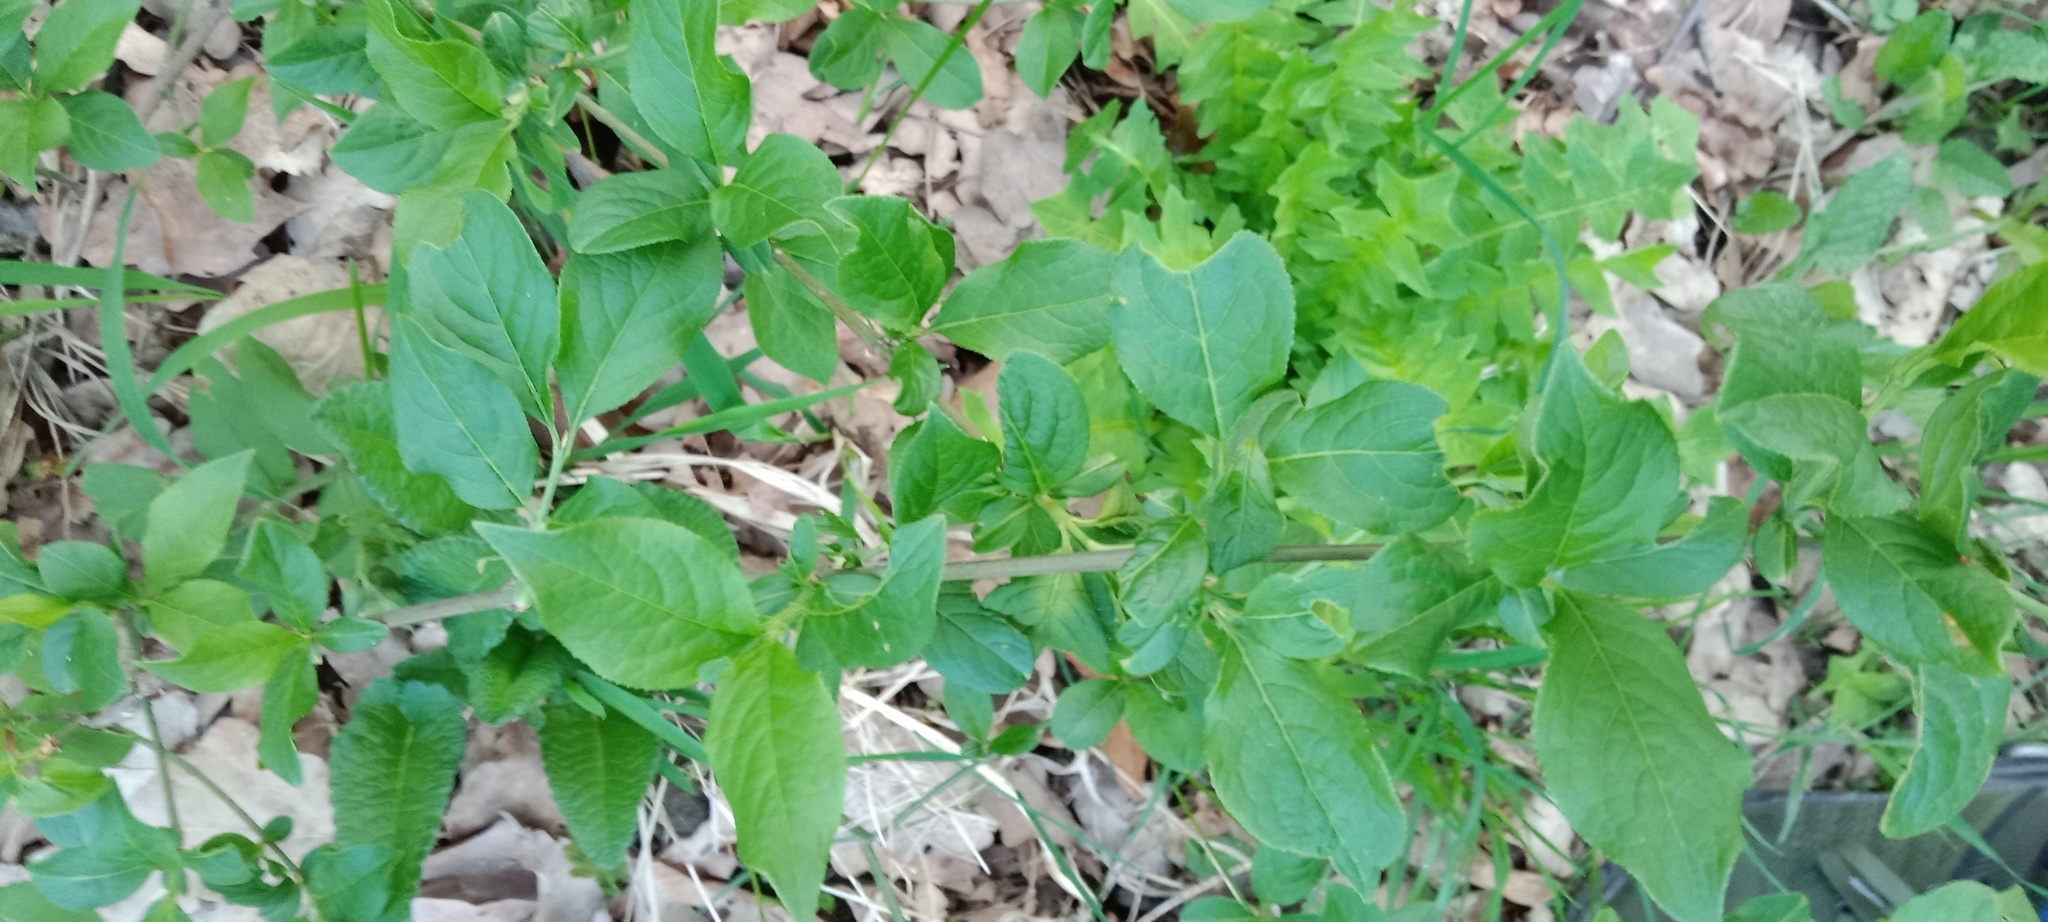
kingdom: Plantae
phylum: Tracheophyta
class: Magnoliopsida
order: Celastrales
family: Celastraceae
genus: Euonymus
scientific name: Euonymus europaeus
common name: Spindle
